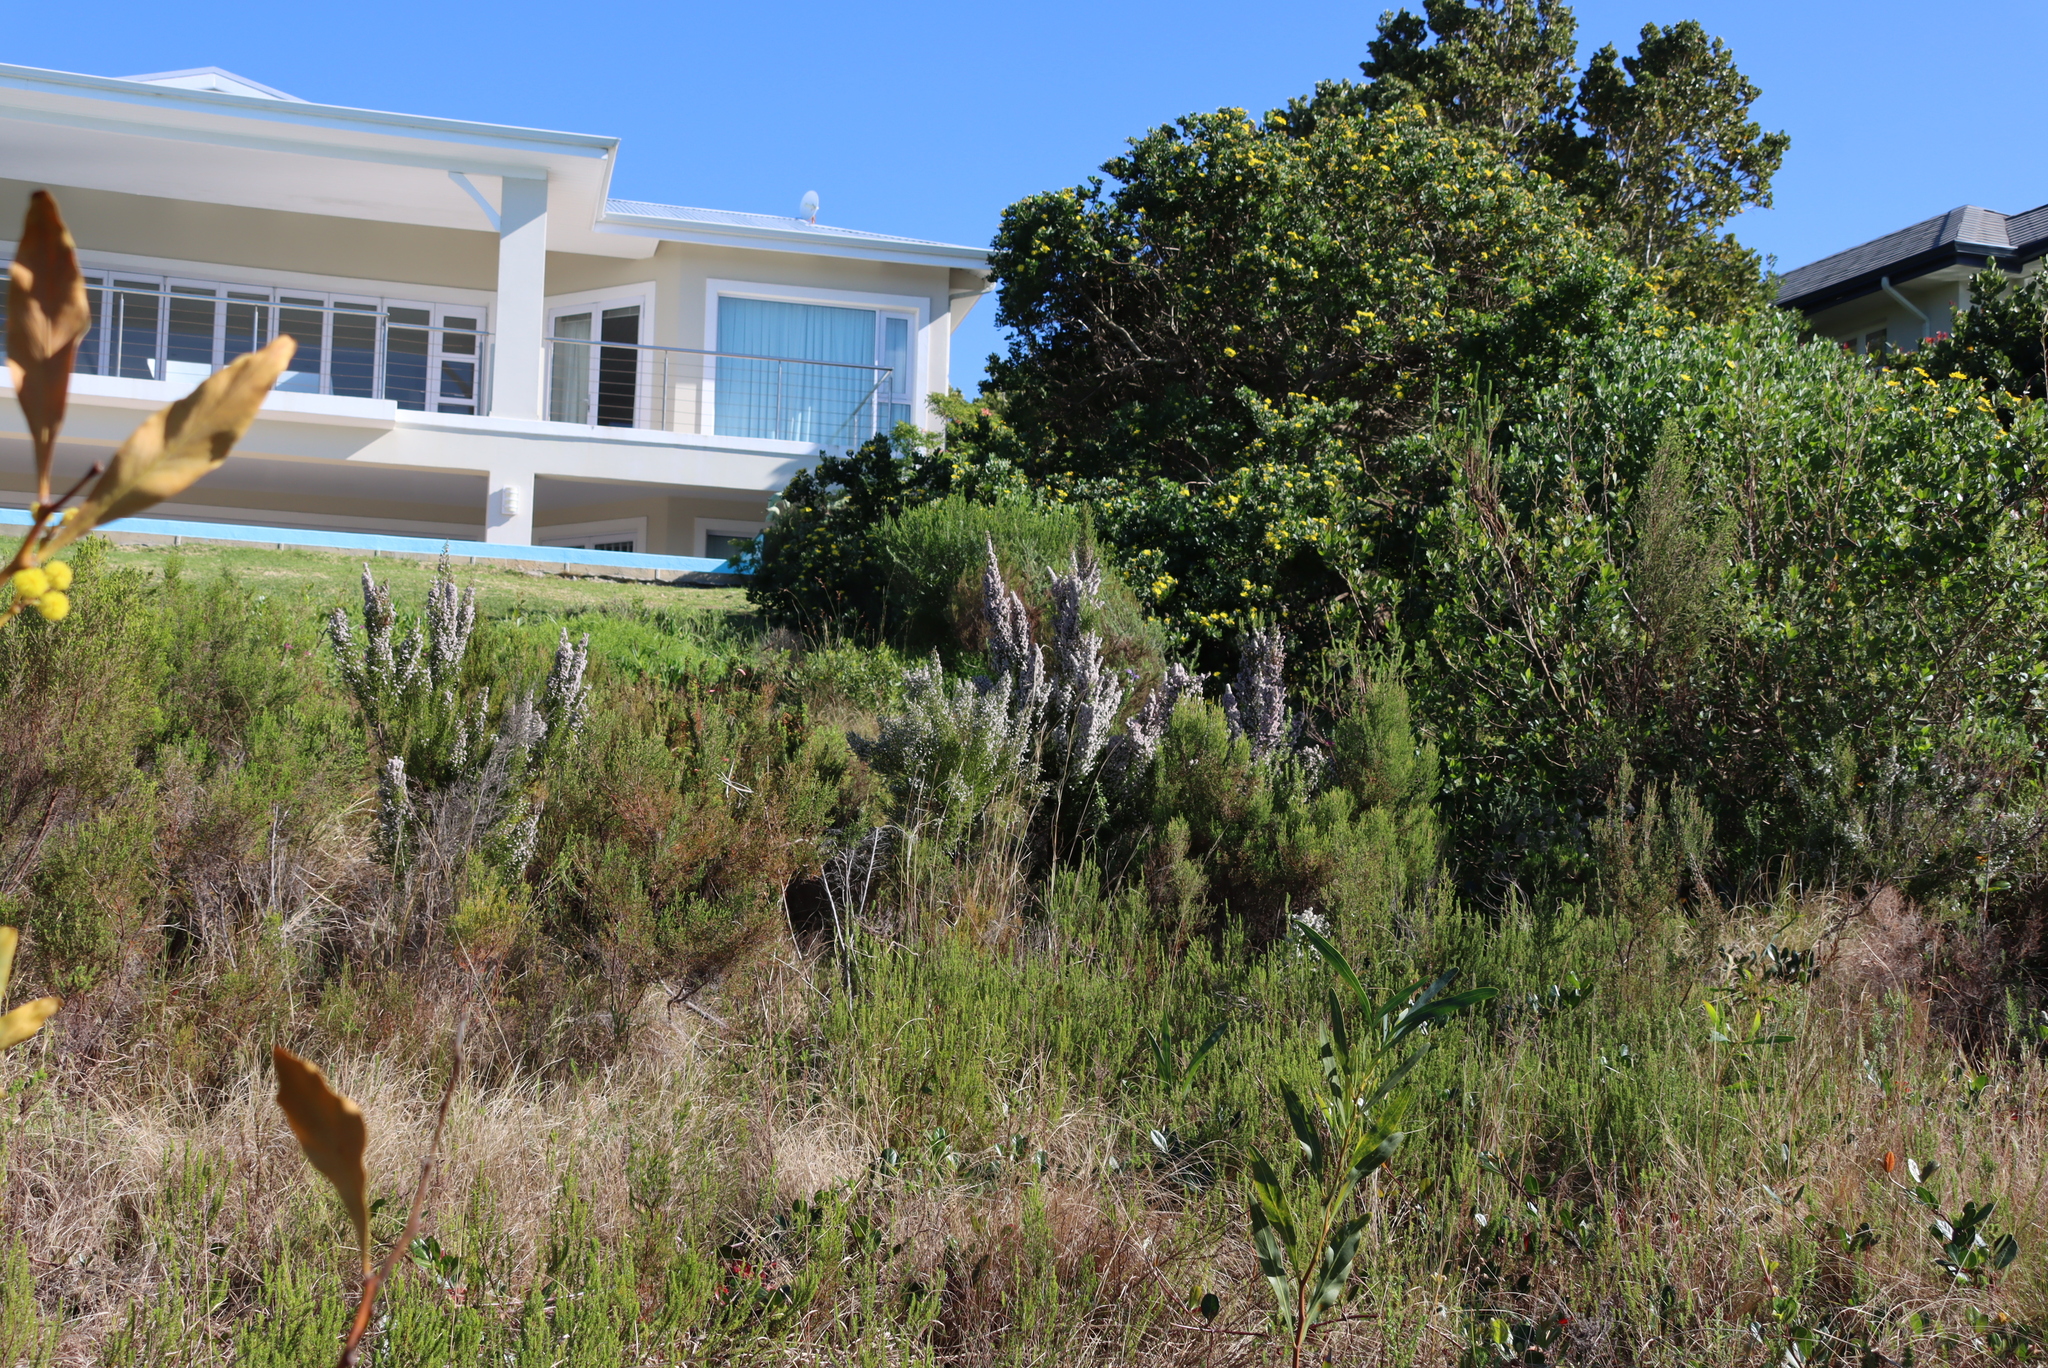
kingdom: Plantae
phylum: Tracheophyta
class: Magnoliopsida
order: Ericales
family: Ericaceae
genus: Erica
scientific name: Erica scabriuscula
